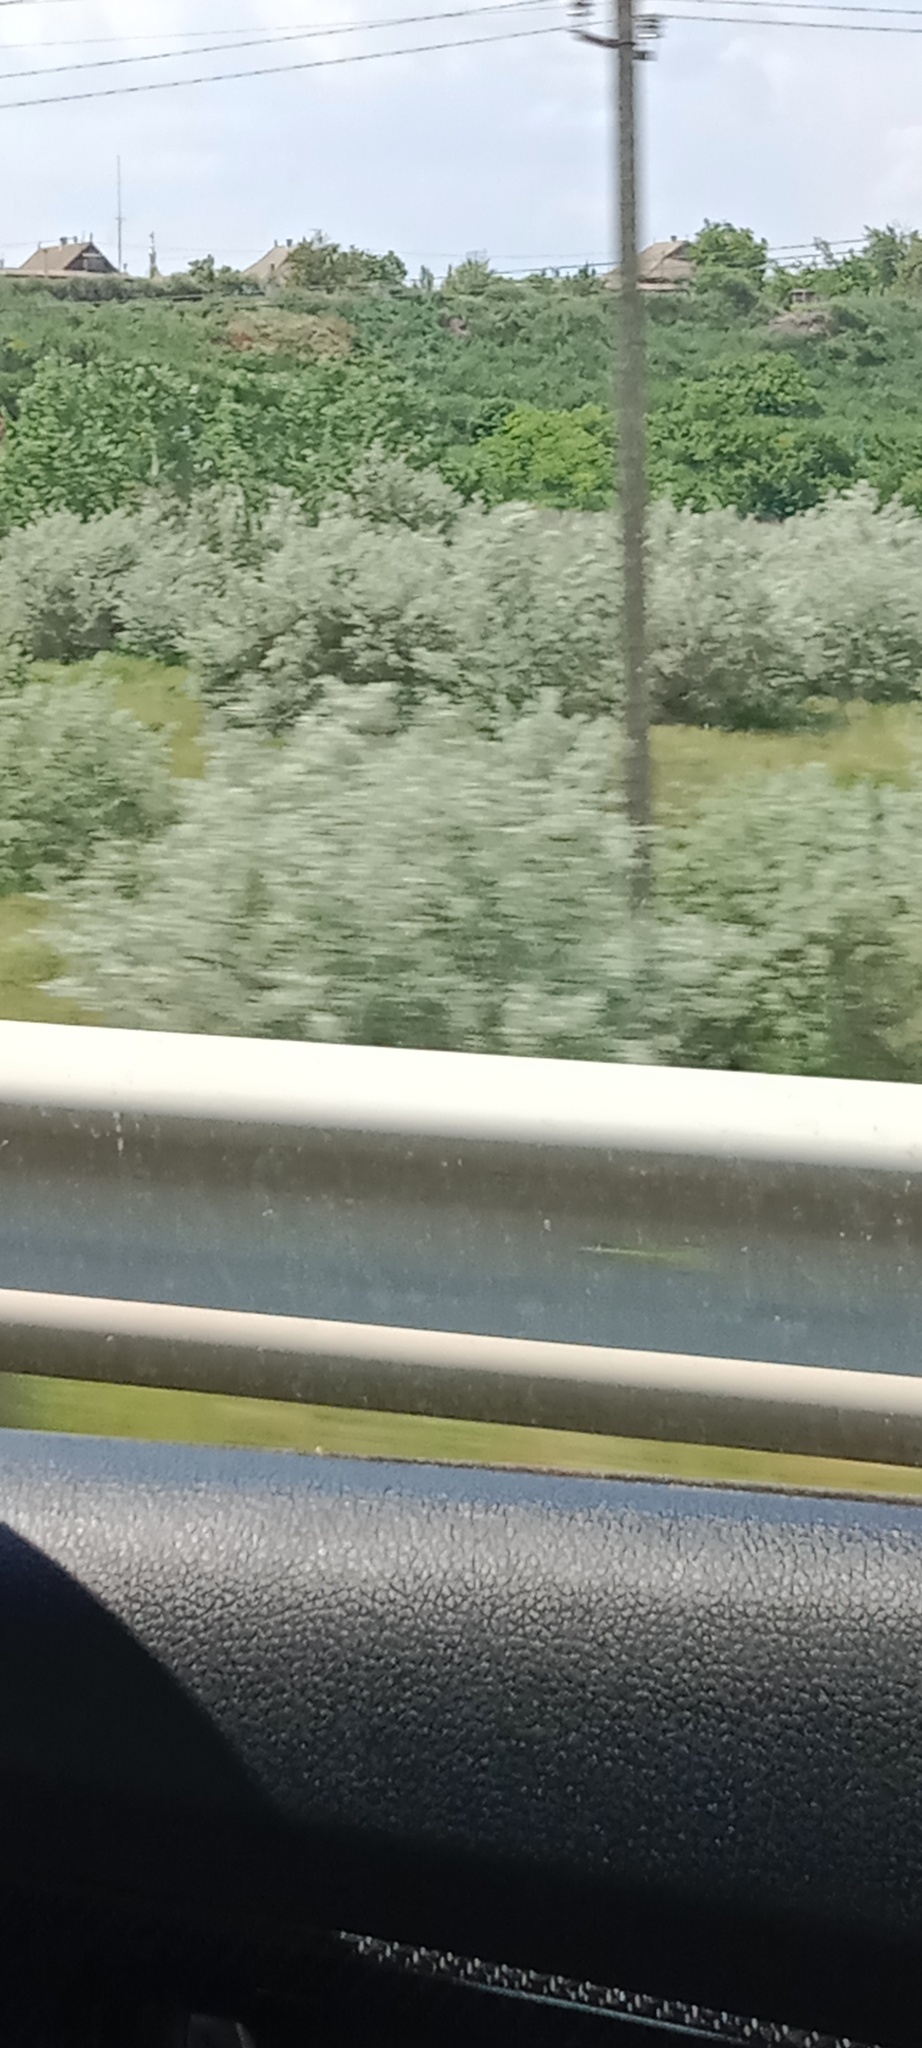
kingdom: Plantae
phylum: Tracheophyta
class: Magnoliopsida
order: Rosales
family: Elaeagnaceae
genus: Elaeagnus
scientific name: Elaeagnus angustifolia
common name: Russian olive
